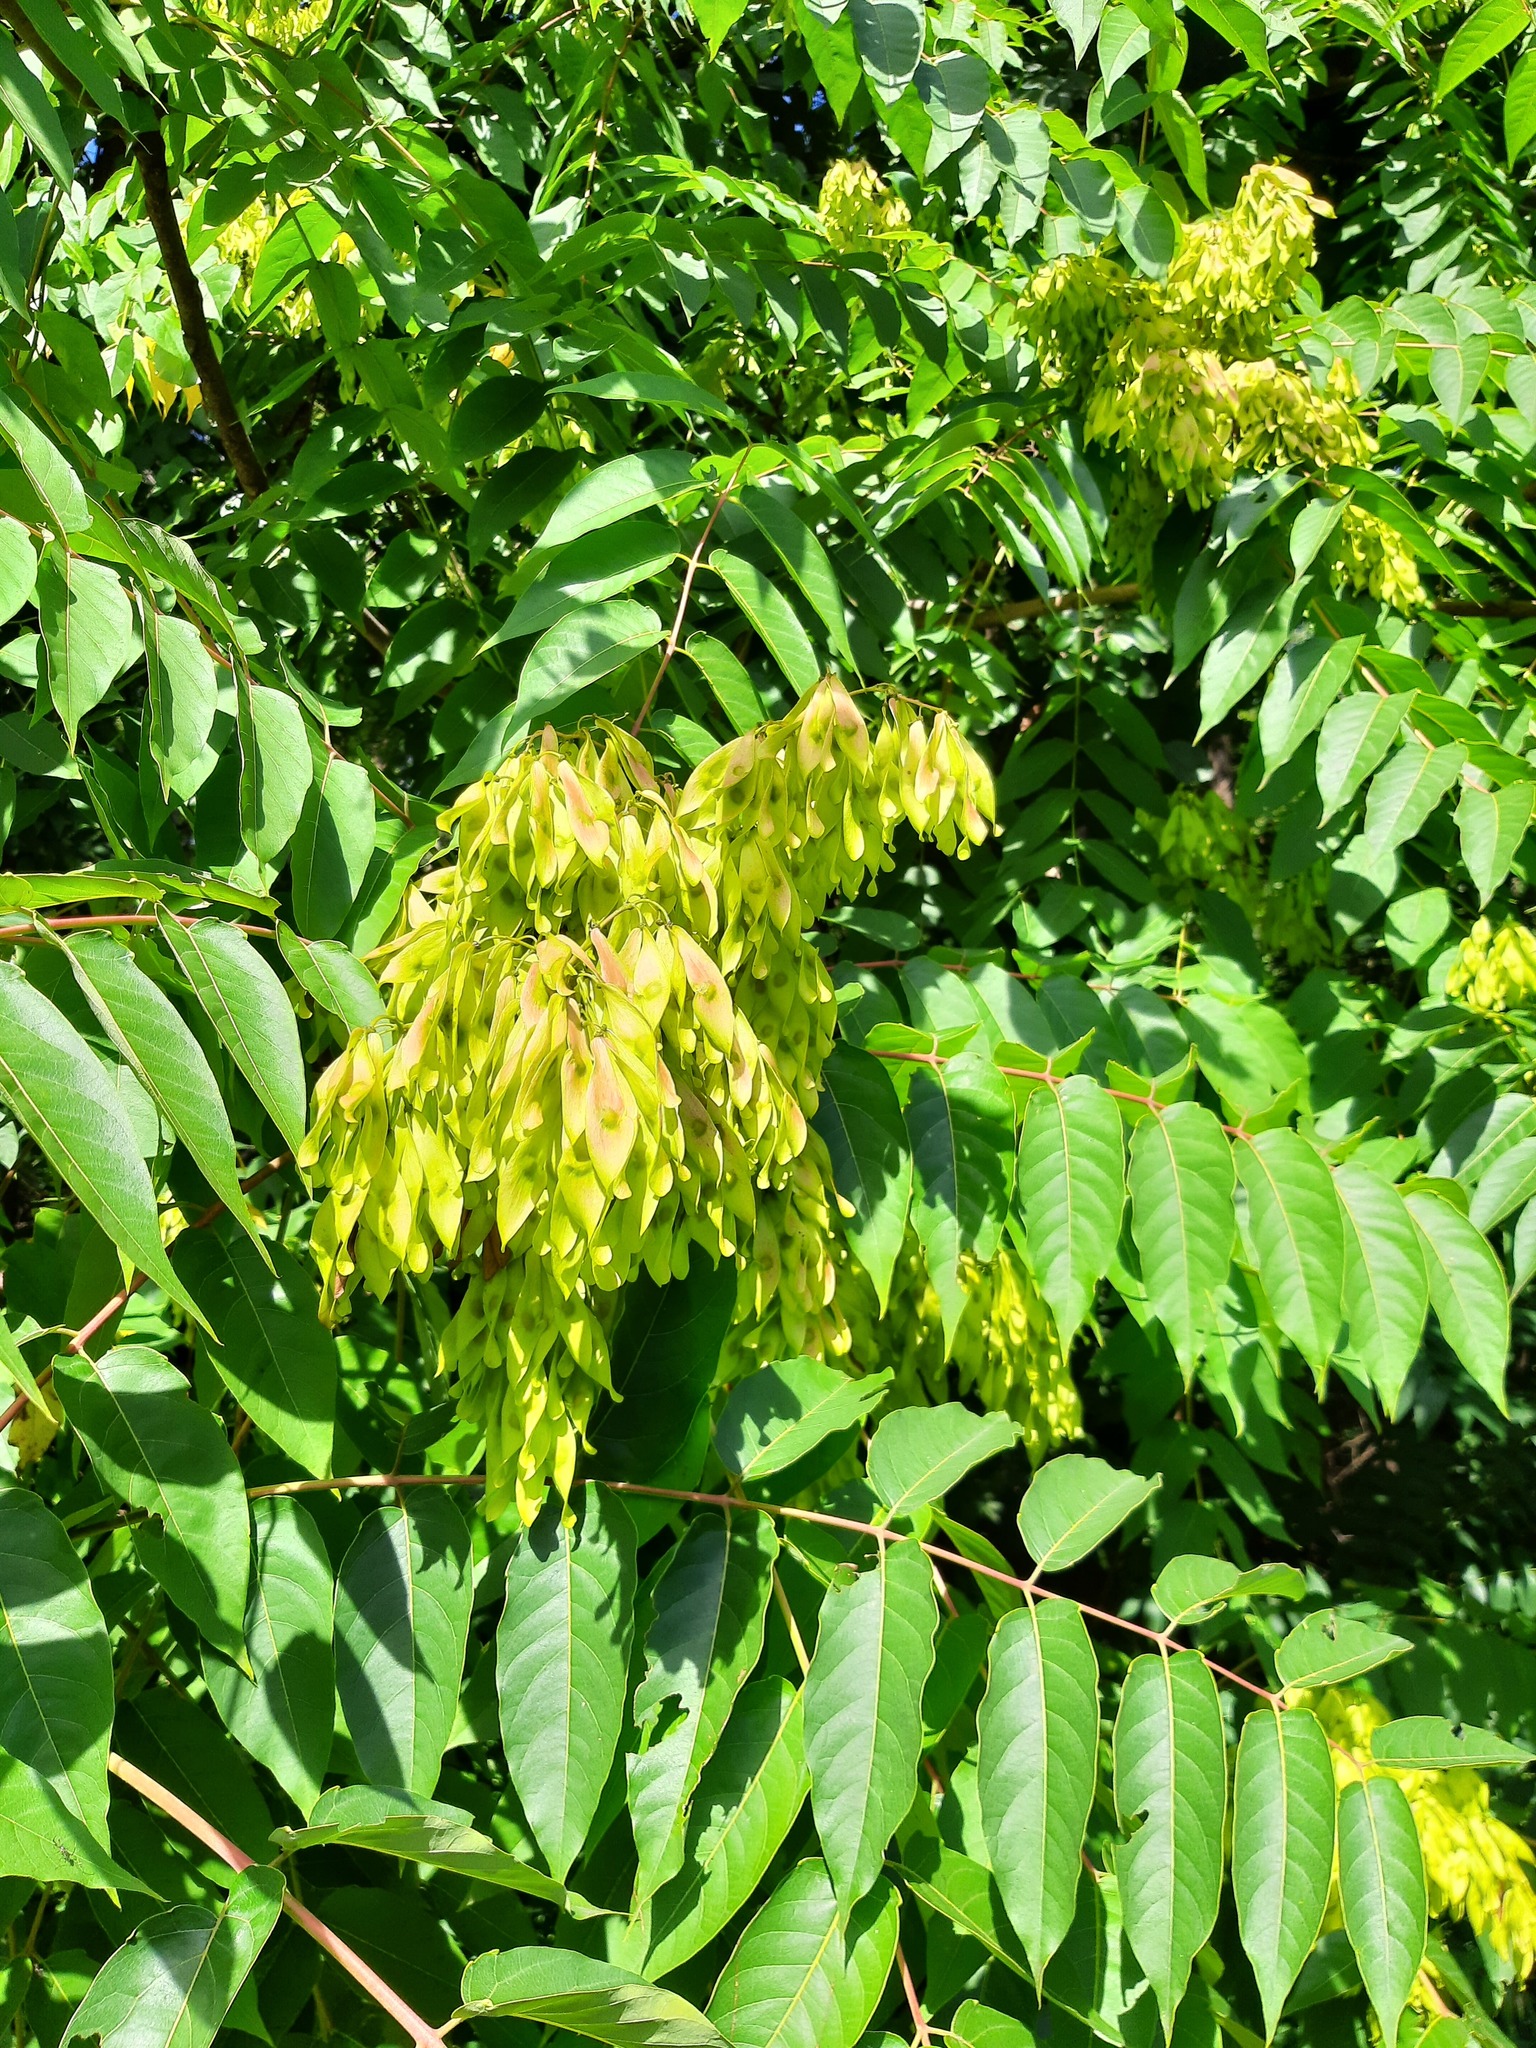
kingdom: Plantae
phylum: Tracheophyta
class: Magnoliopsida
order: Sapindales
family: Simaroubaceae
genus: Ailanthus
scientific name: Ailanthus altissima
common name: Tree-of-heaven
